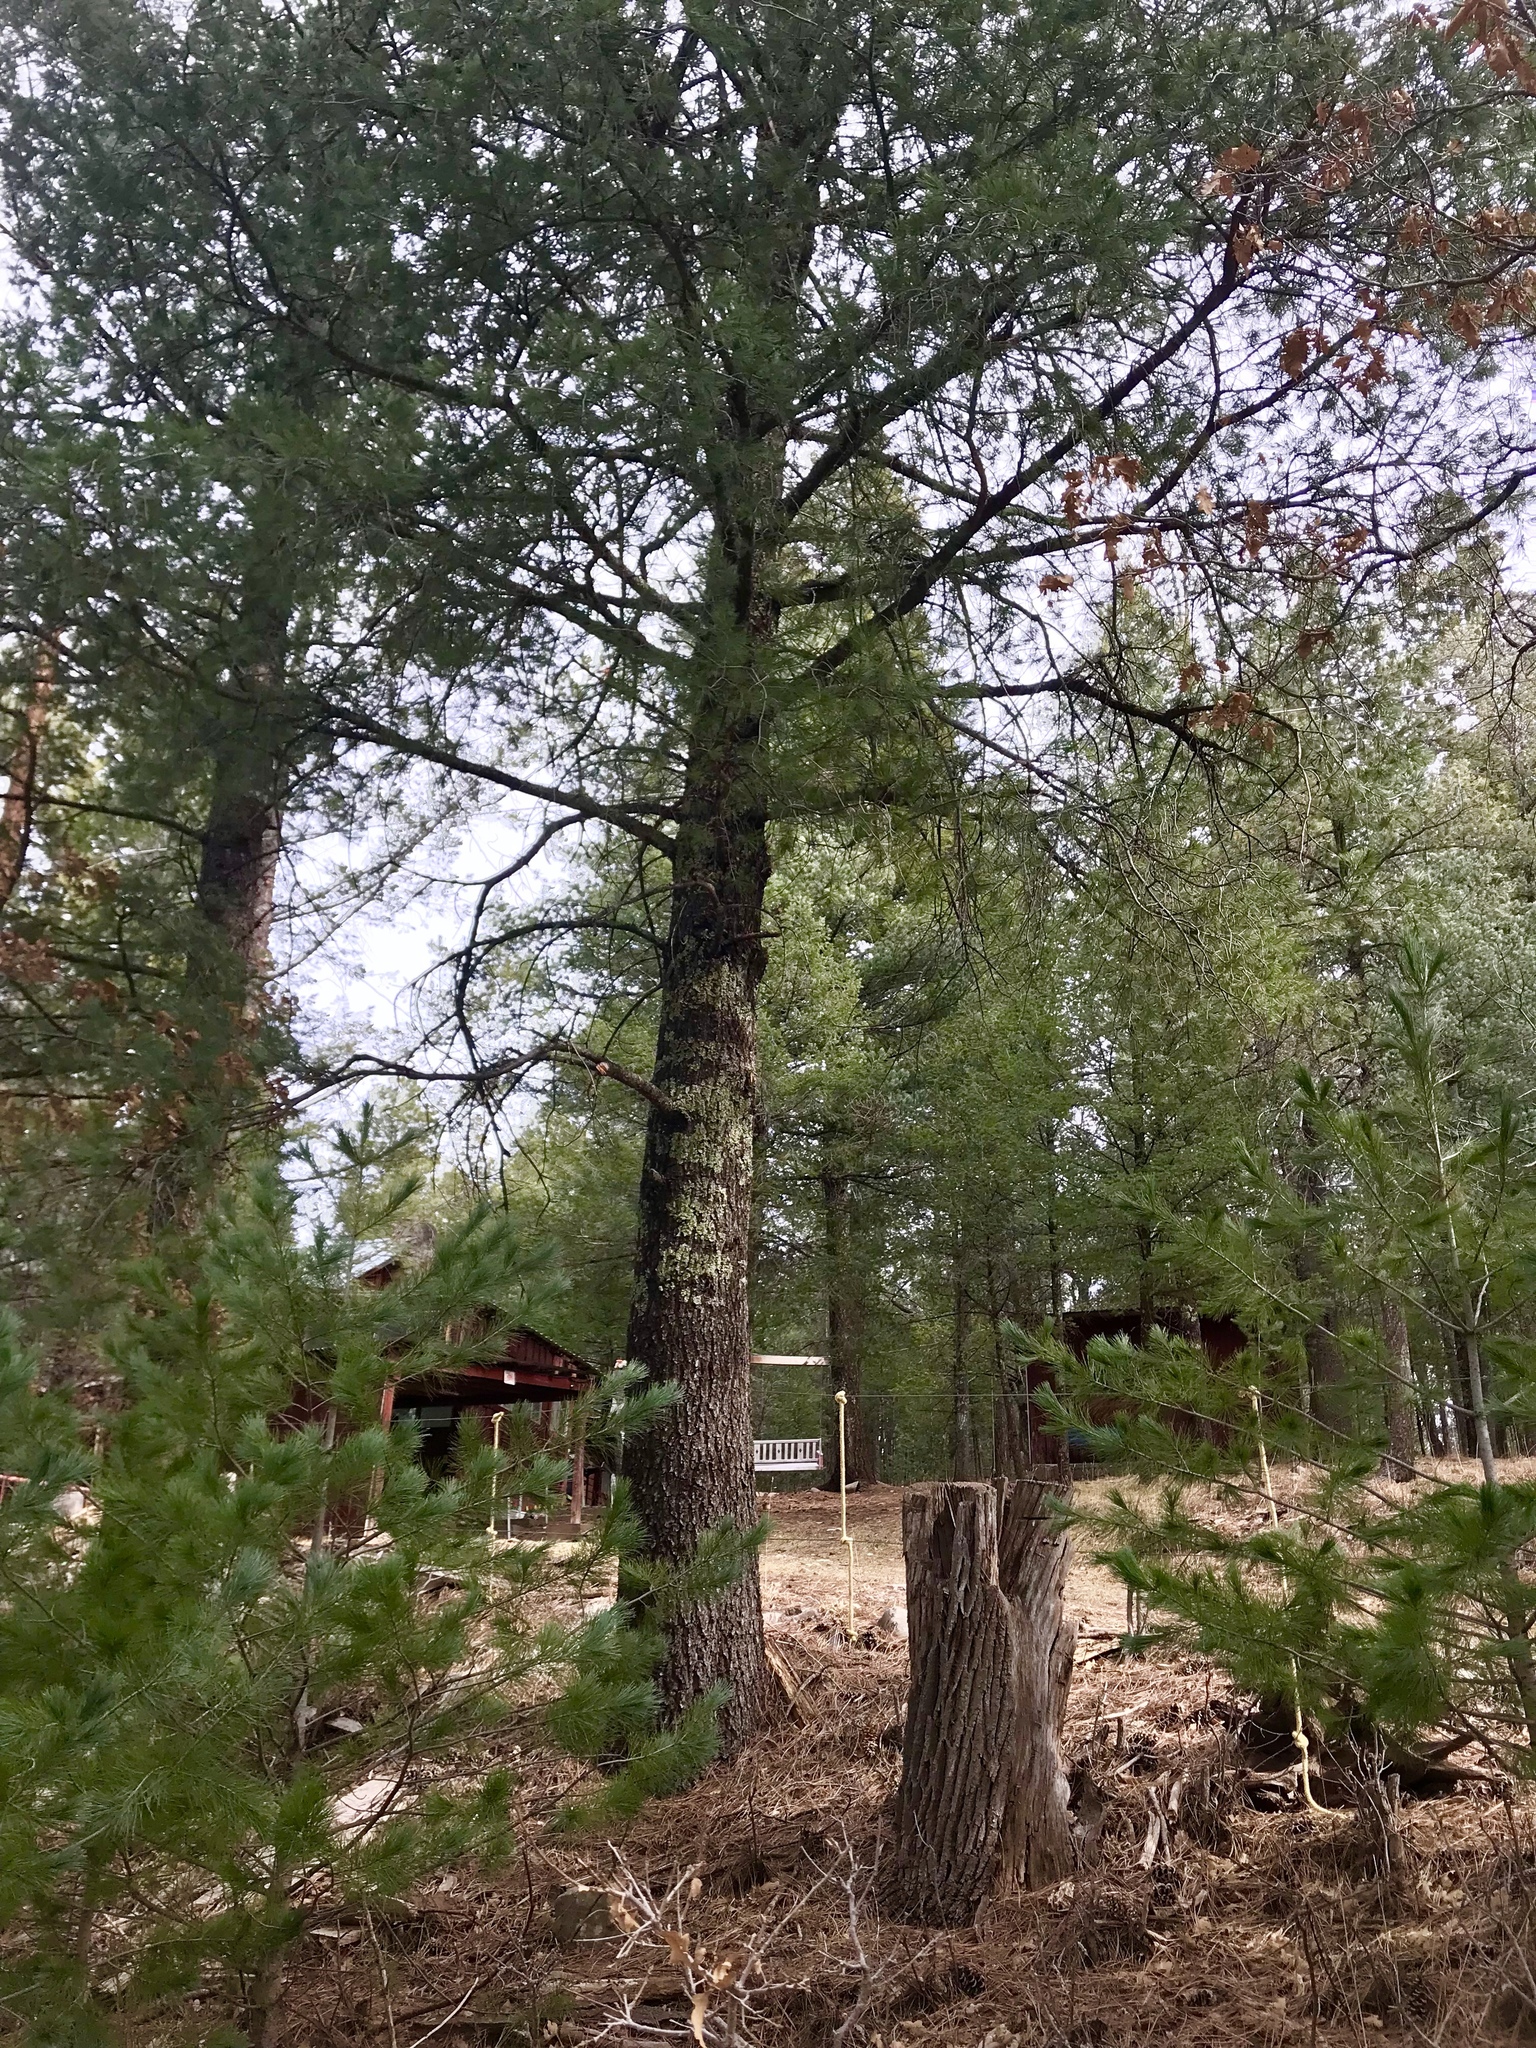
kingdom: Plantae
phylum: Tracheophyta
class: Pinopsida
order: Pinales
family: Pinaceae
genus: Abies
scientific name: Abies concolor
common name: Colorado fir
